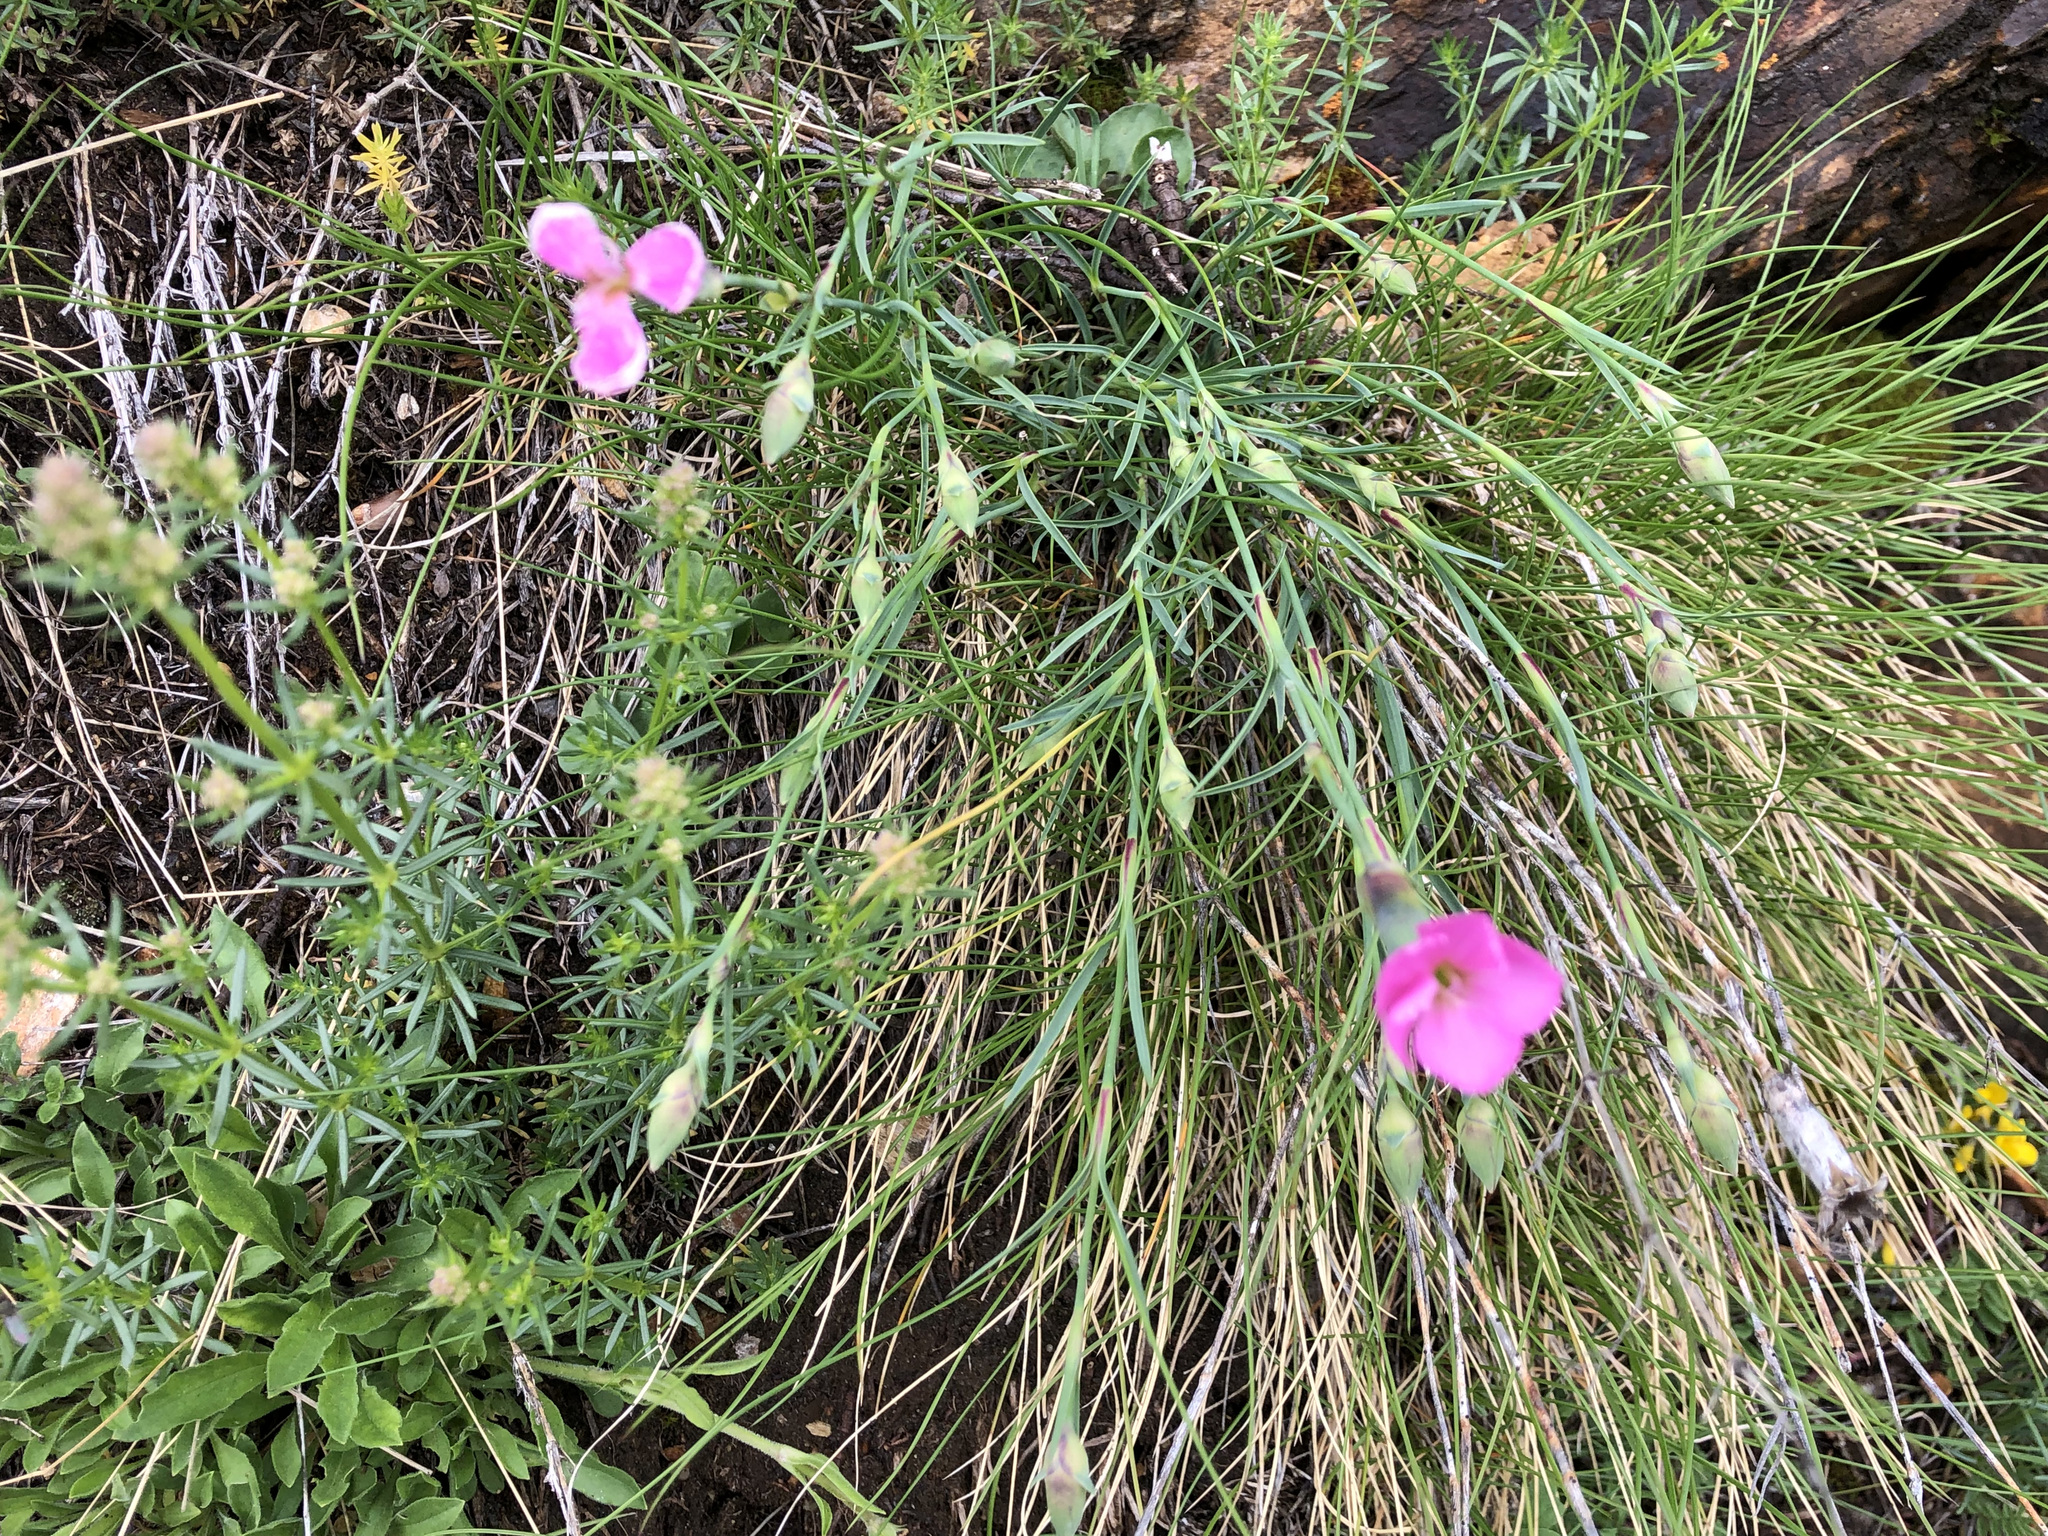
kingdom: Plantae
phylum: Tracheophyta
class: Magnoliopsida
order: Caryophyllales
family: Caryophyllaceae
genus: Dianthus
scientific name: Dianthus sylvestris
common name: Wood pink
